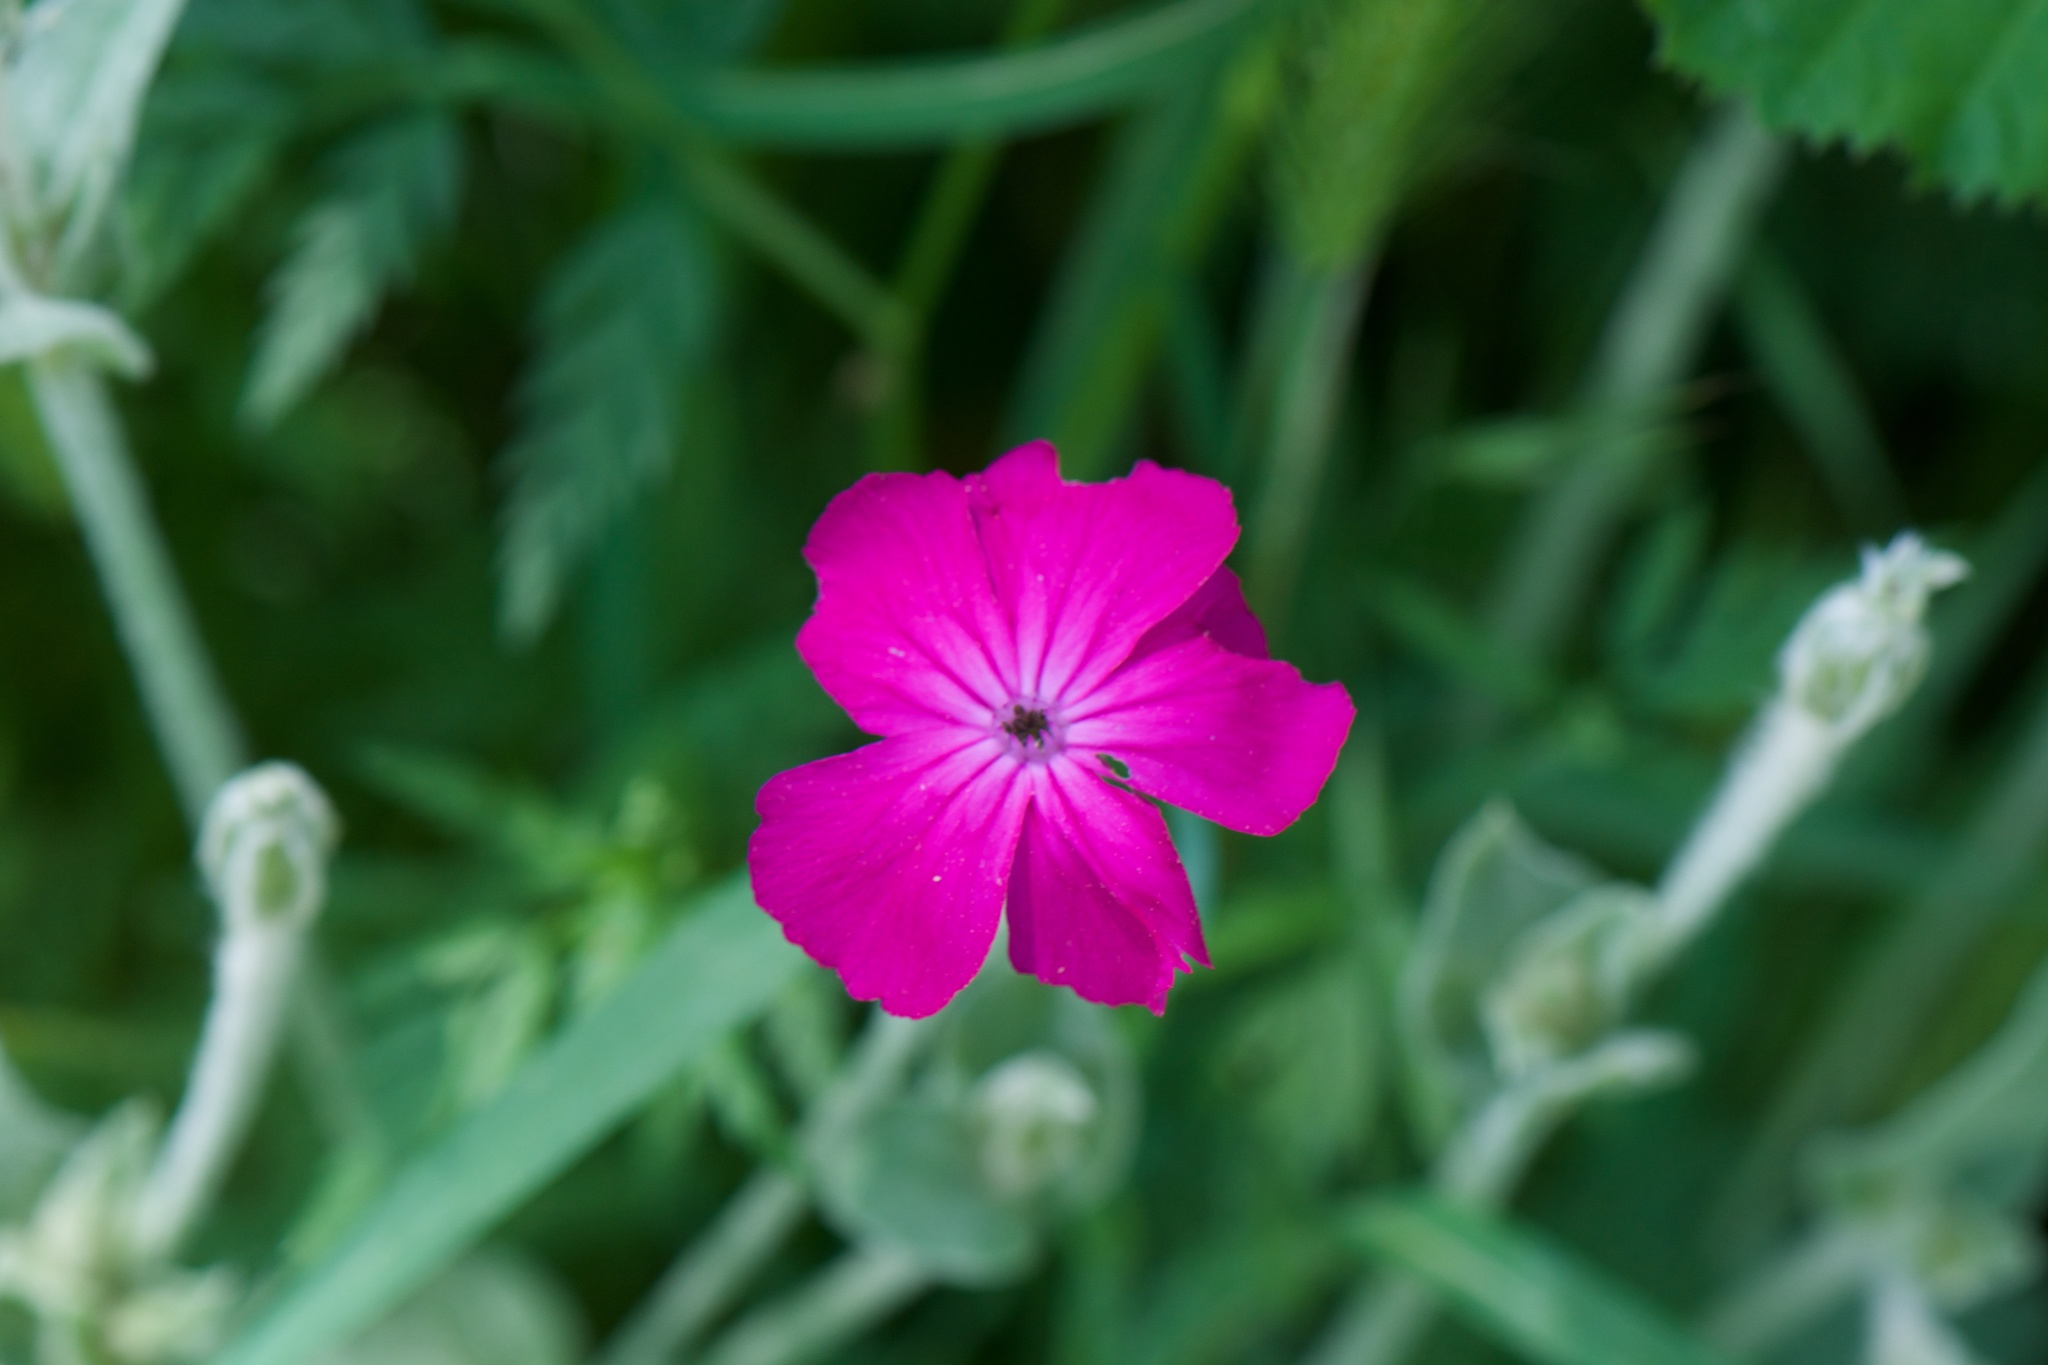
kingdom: Plantae
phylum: Tracheophyta
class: Magnoliopsida
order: Caryophyllales
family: Caryophyllaceae
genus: Silene
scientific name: Silene coronaria
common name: Rose campion
